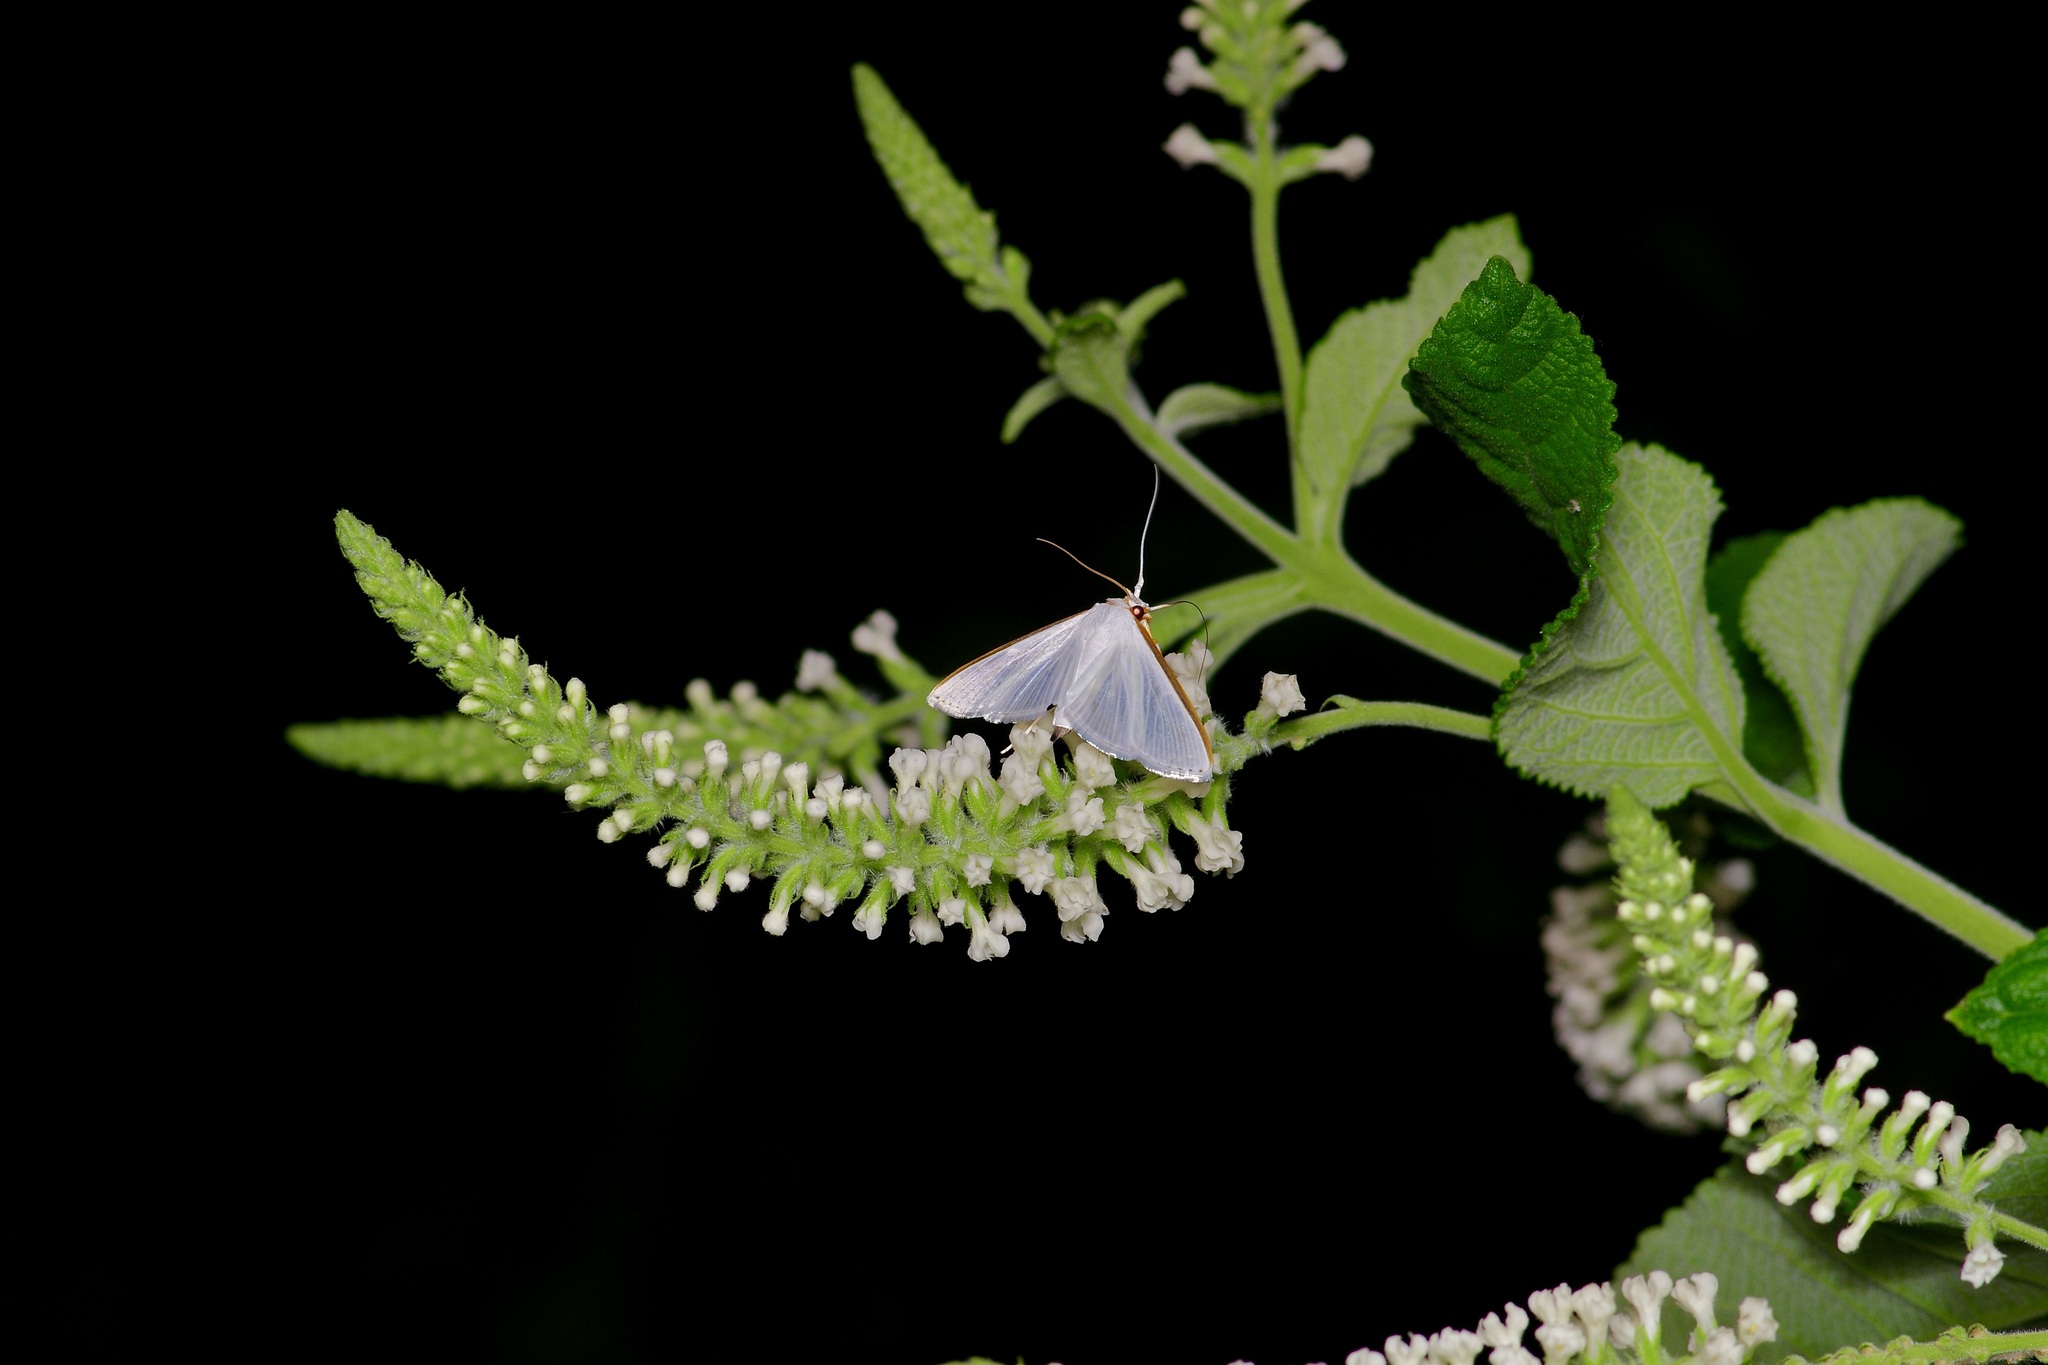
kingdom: Animalia
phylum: Arthropoda
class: Insecta
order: Lepidoptera
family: Crambidae
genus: Diaphania
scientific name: Diaphania costata
